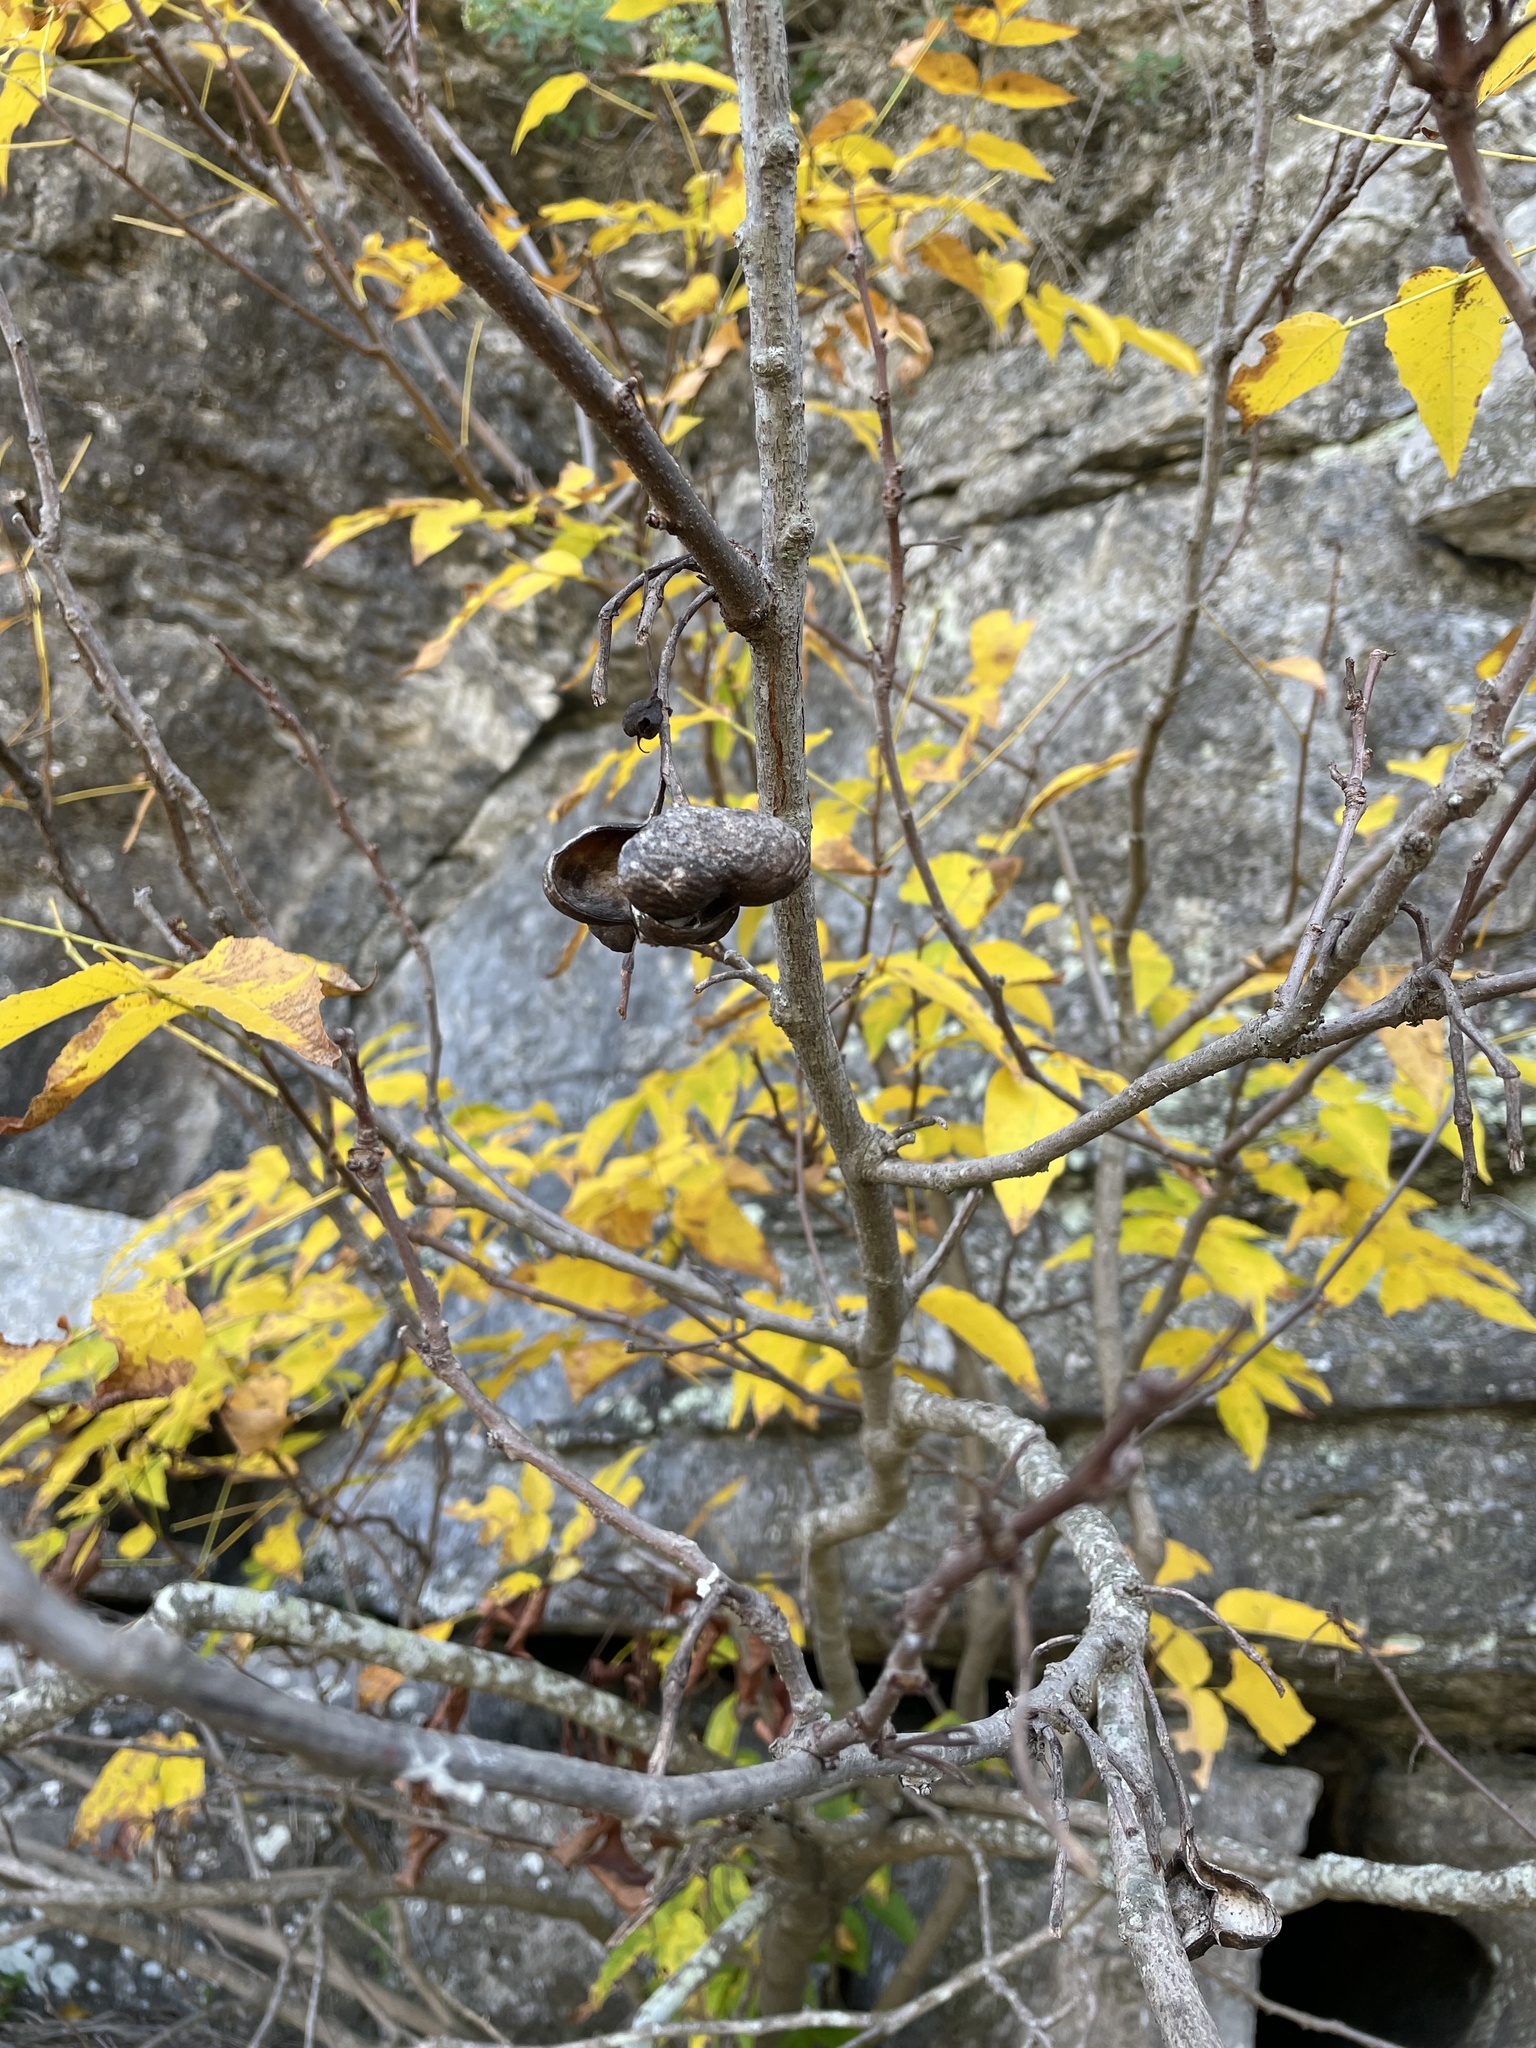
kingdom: Plantae
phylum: Tracheophyta
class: Magnoliopsida
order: Sapindales
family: Sapindaceae
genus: Ungnadia
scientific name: Ungnadia speciosa
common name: Texas-buckeye
